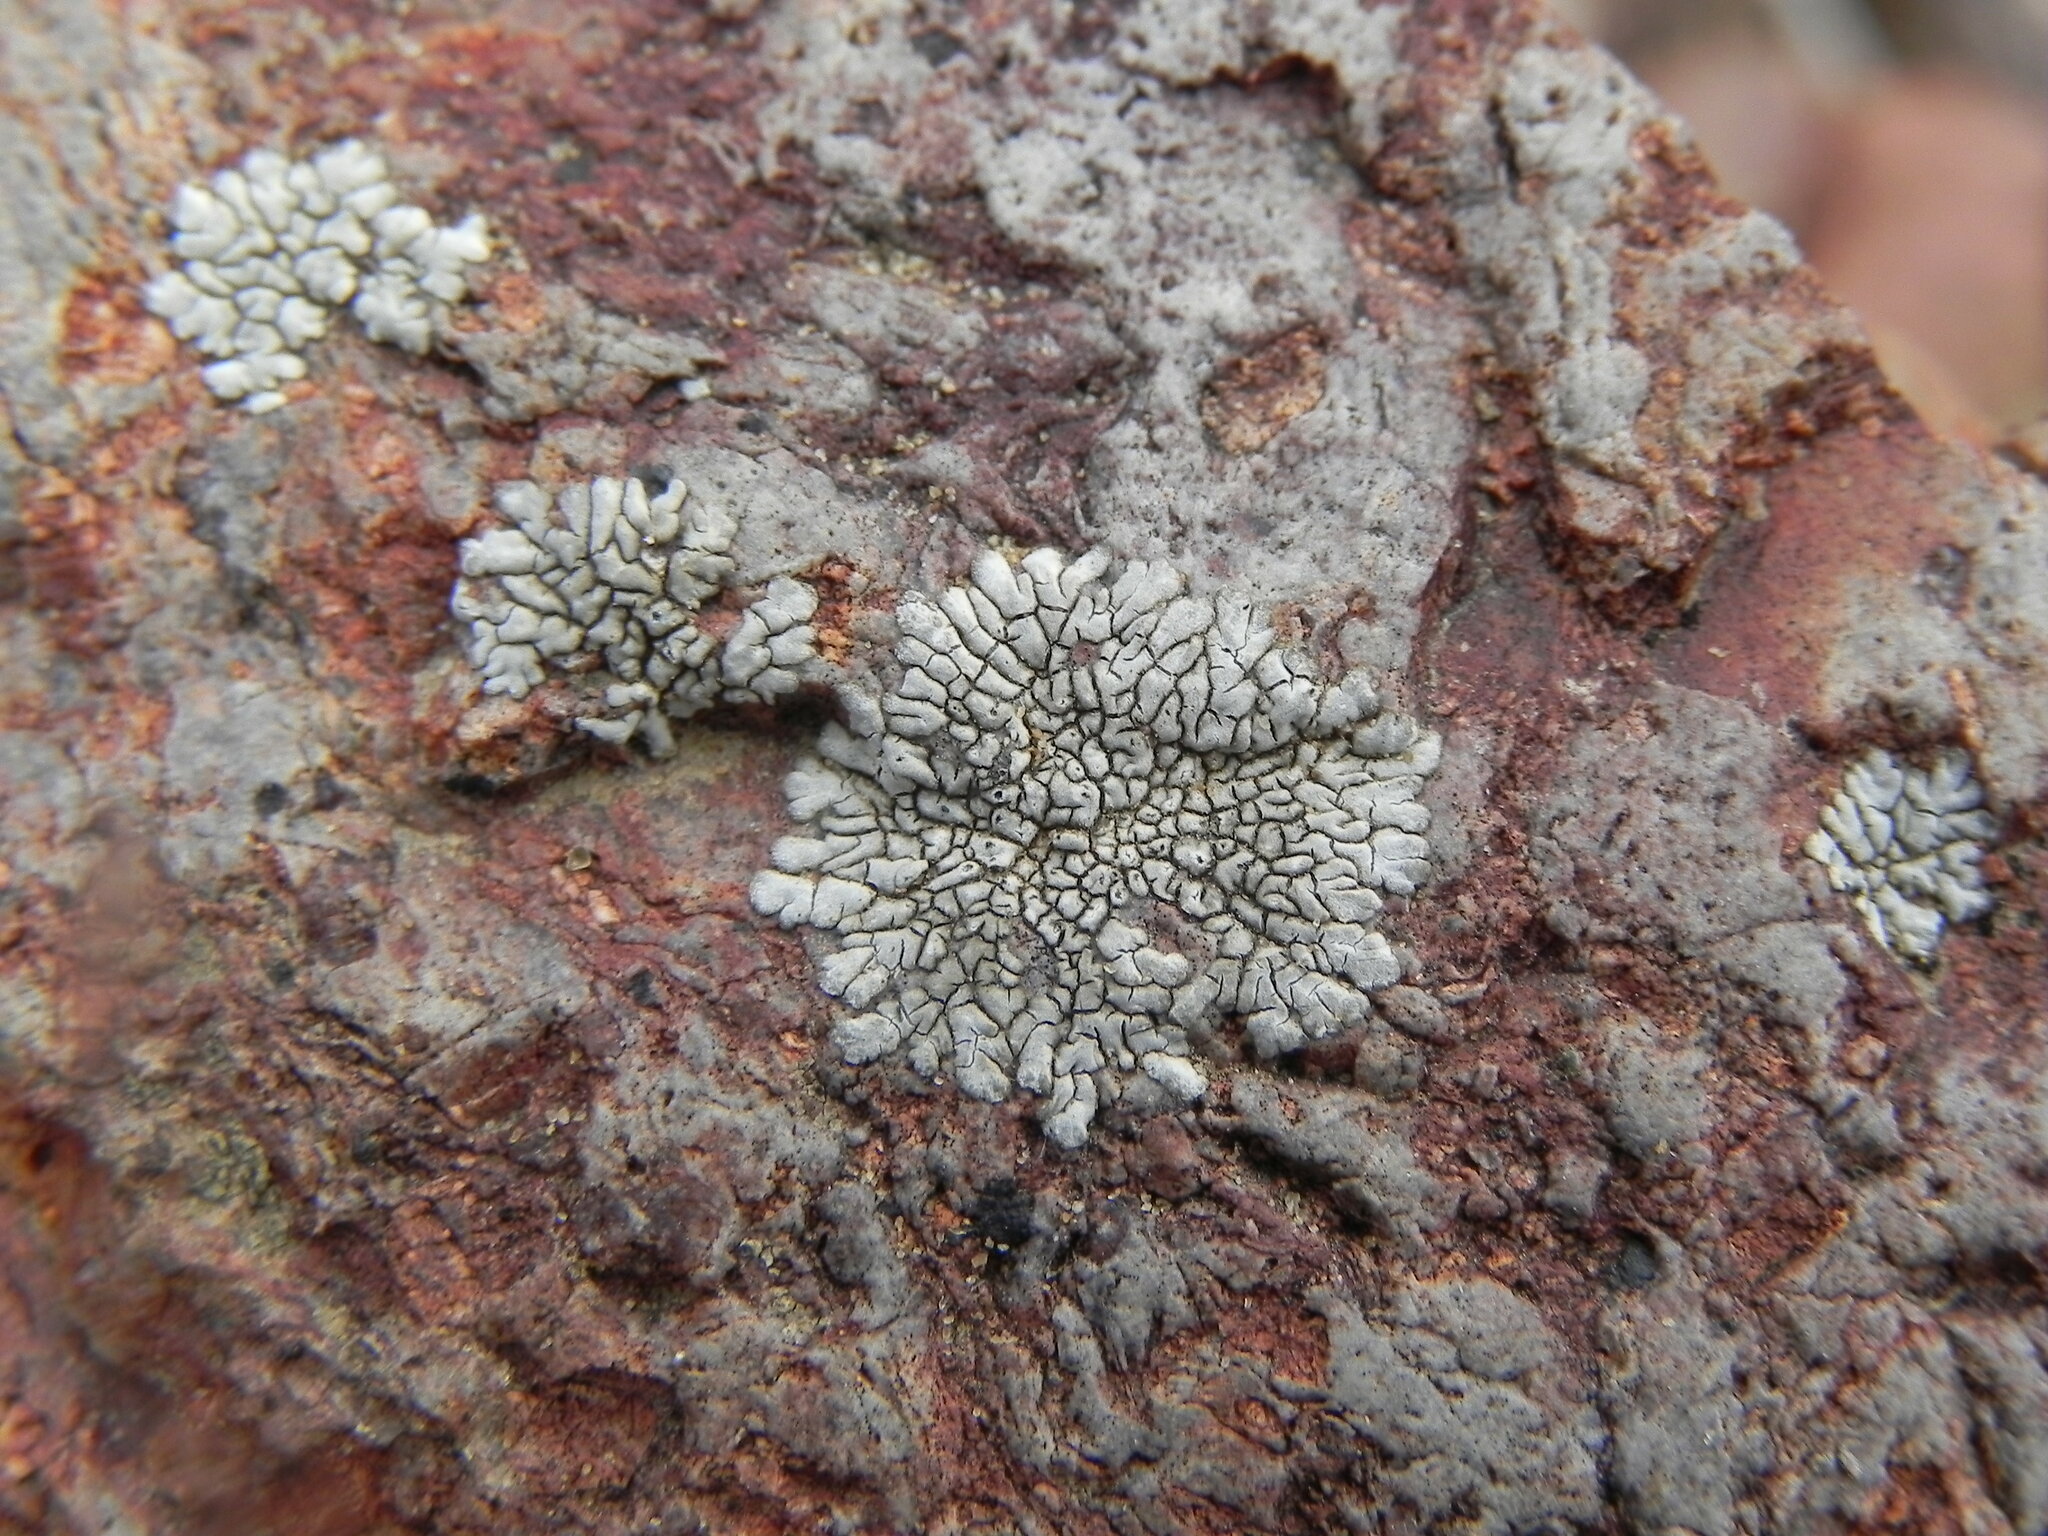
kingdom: Fungi
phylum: Ascomycota
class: Lecanoromycetes
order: Caliciales
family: Caliciaceae
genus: Dimelaena
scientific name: Dimelaena radiata
